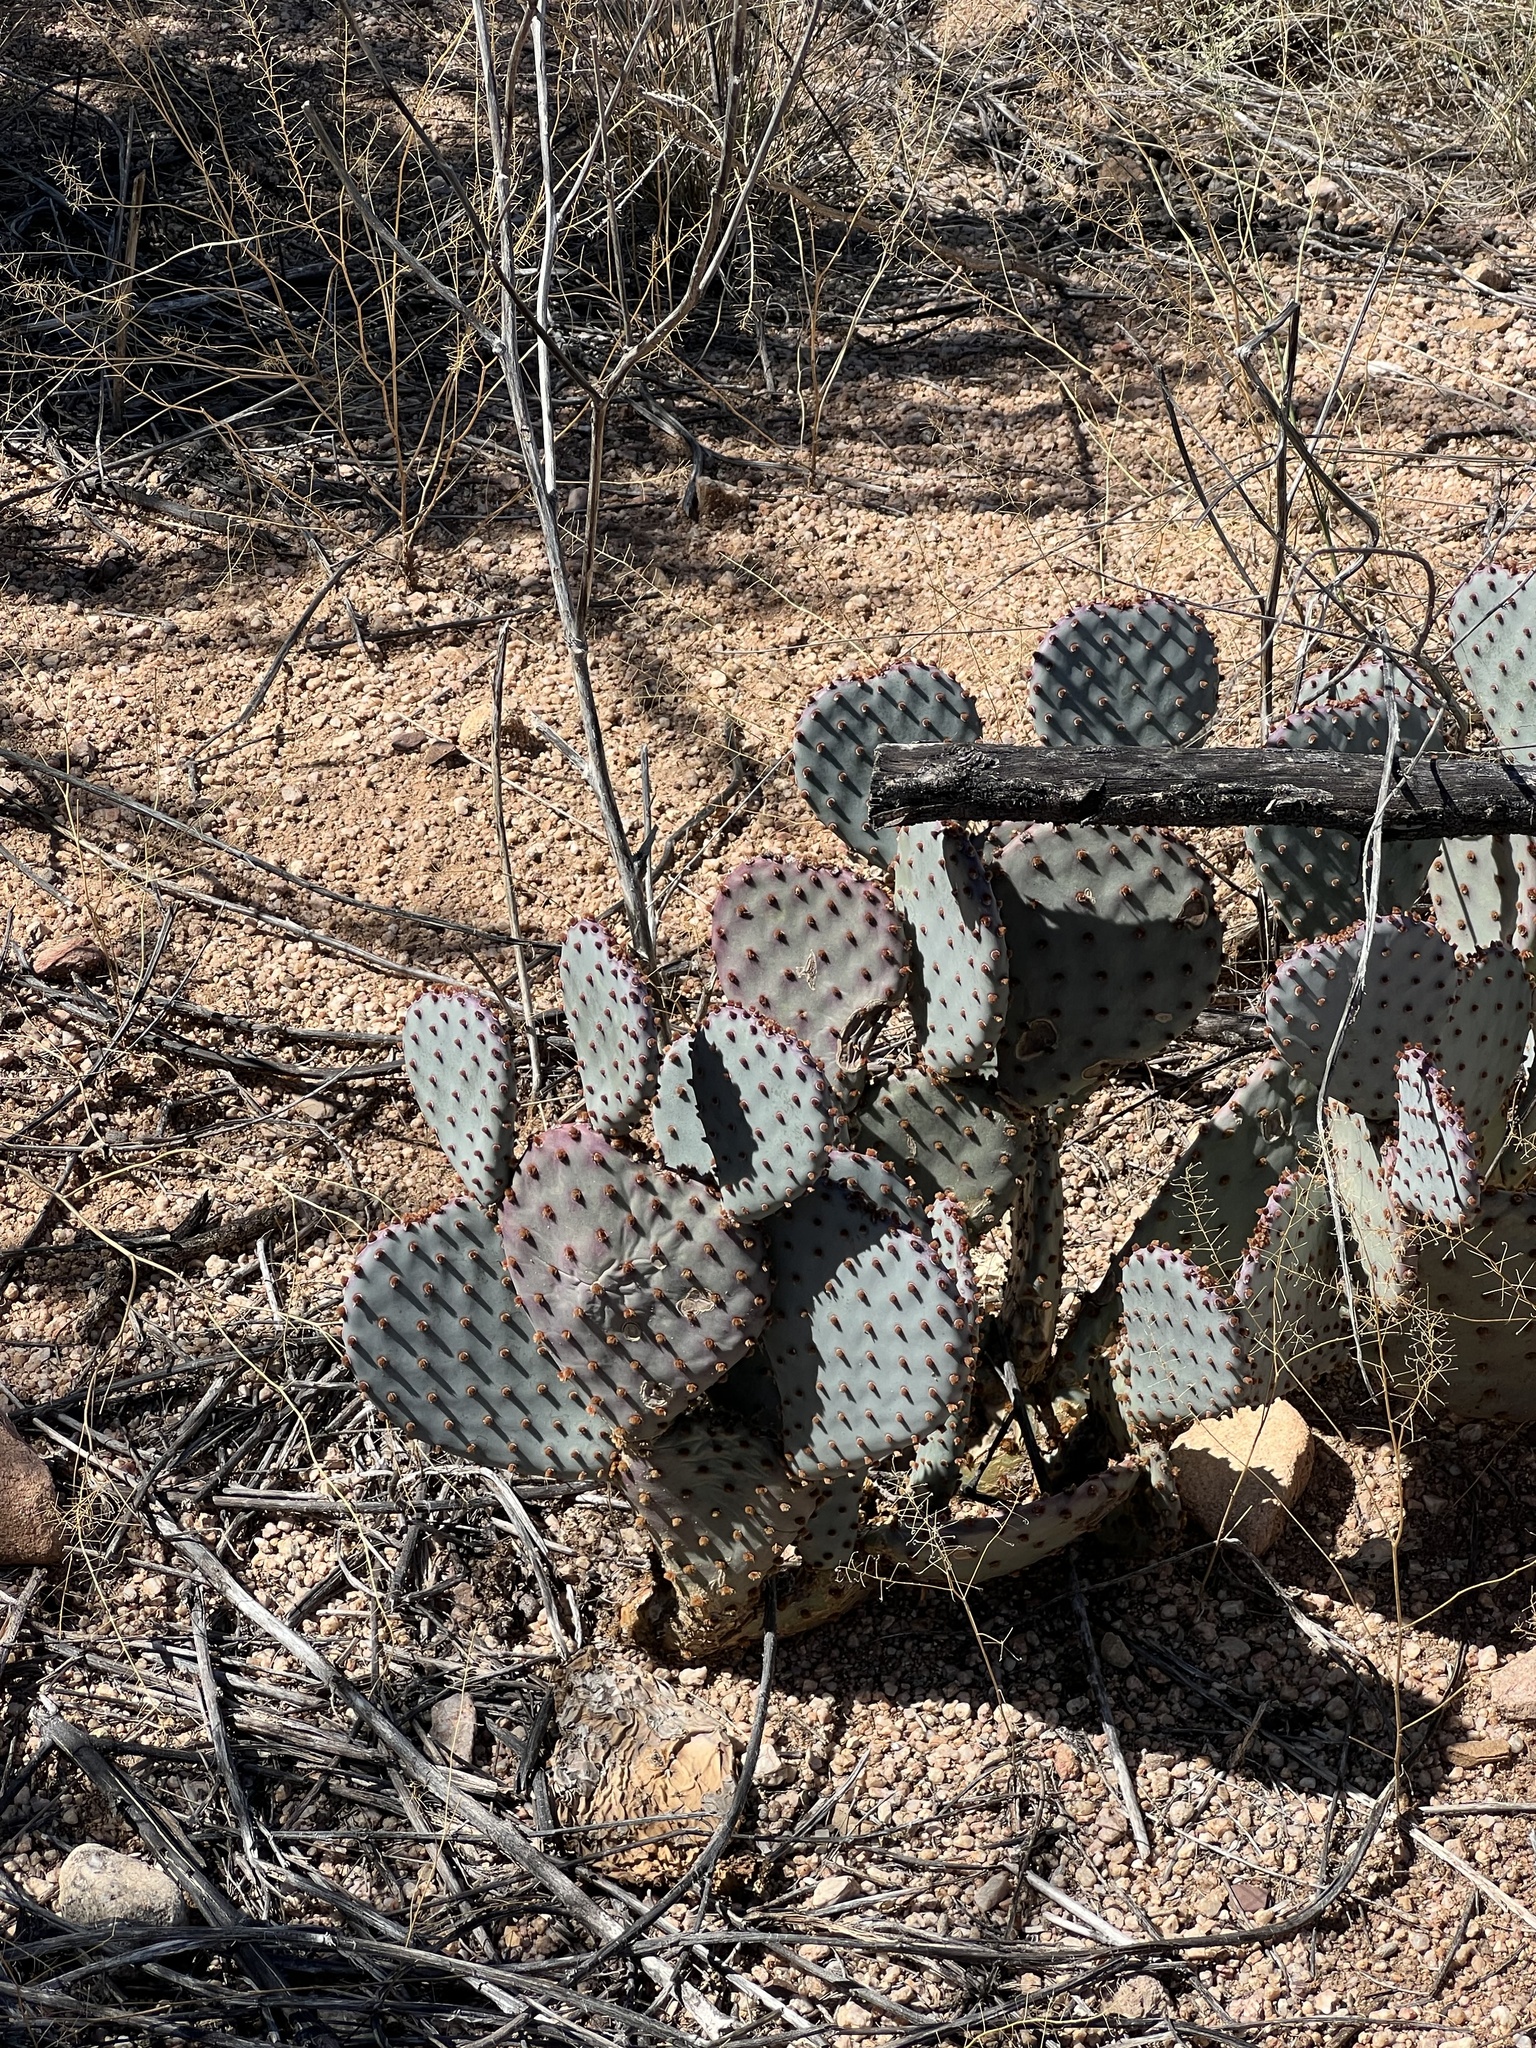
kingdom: Plantae
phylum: Tracheophyta
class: Magnoliopsida
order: Caryophyllales
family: Cactaceae
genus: Opuntia
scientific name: Opuntia gosseliniana
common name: Violet prickly-pear
